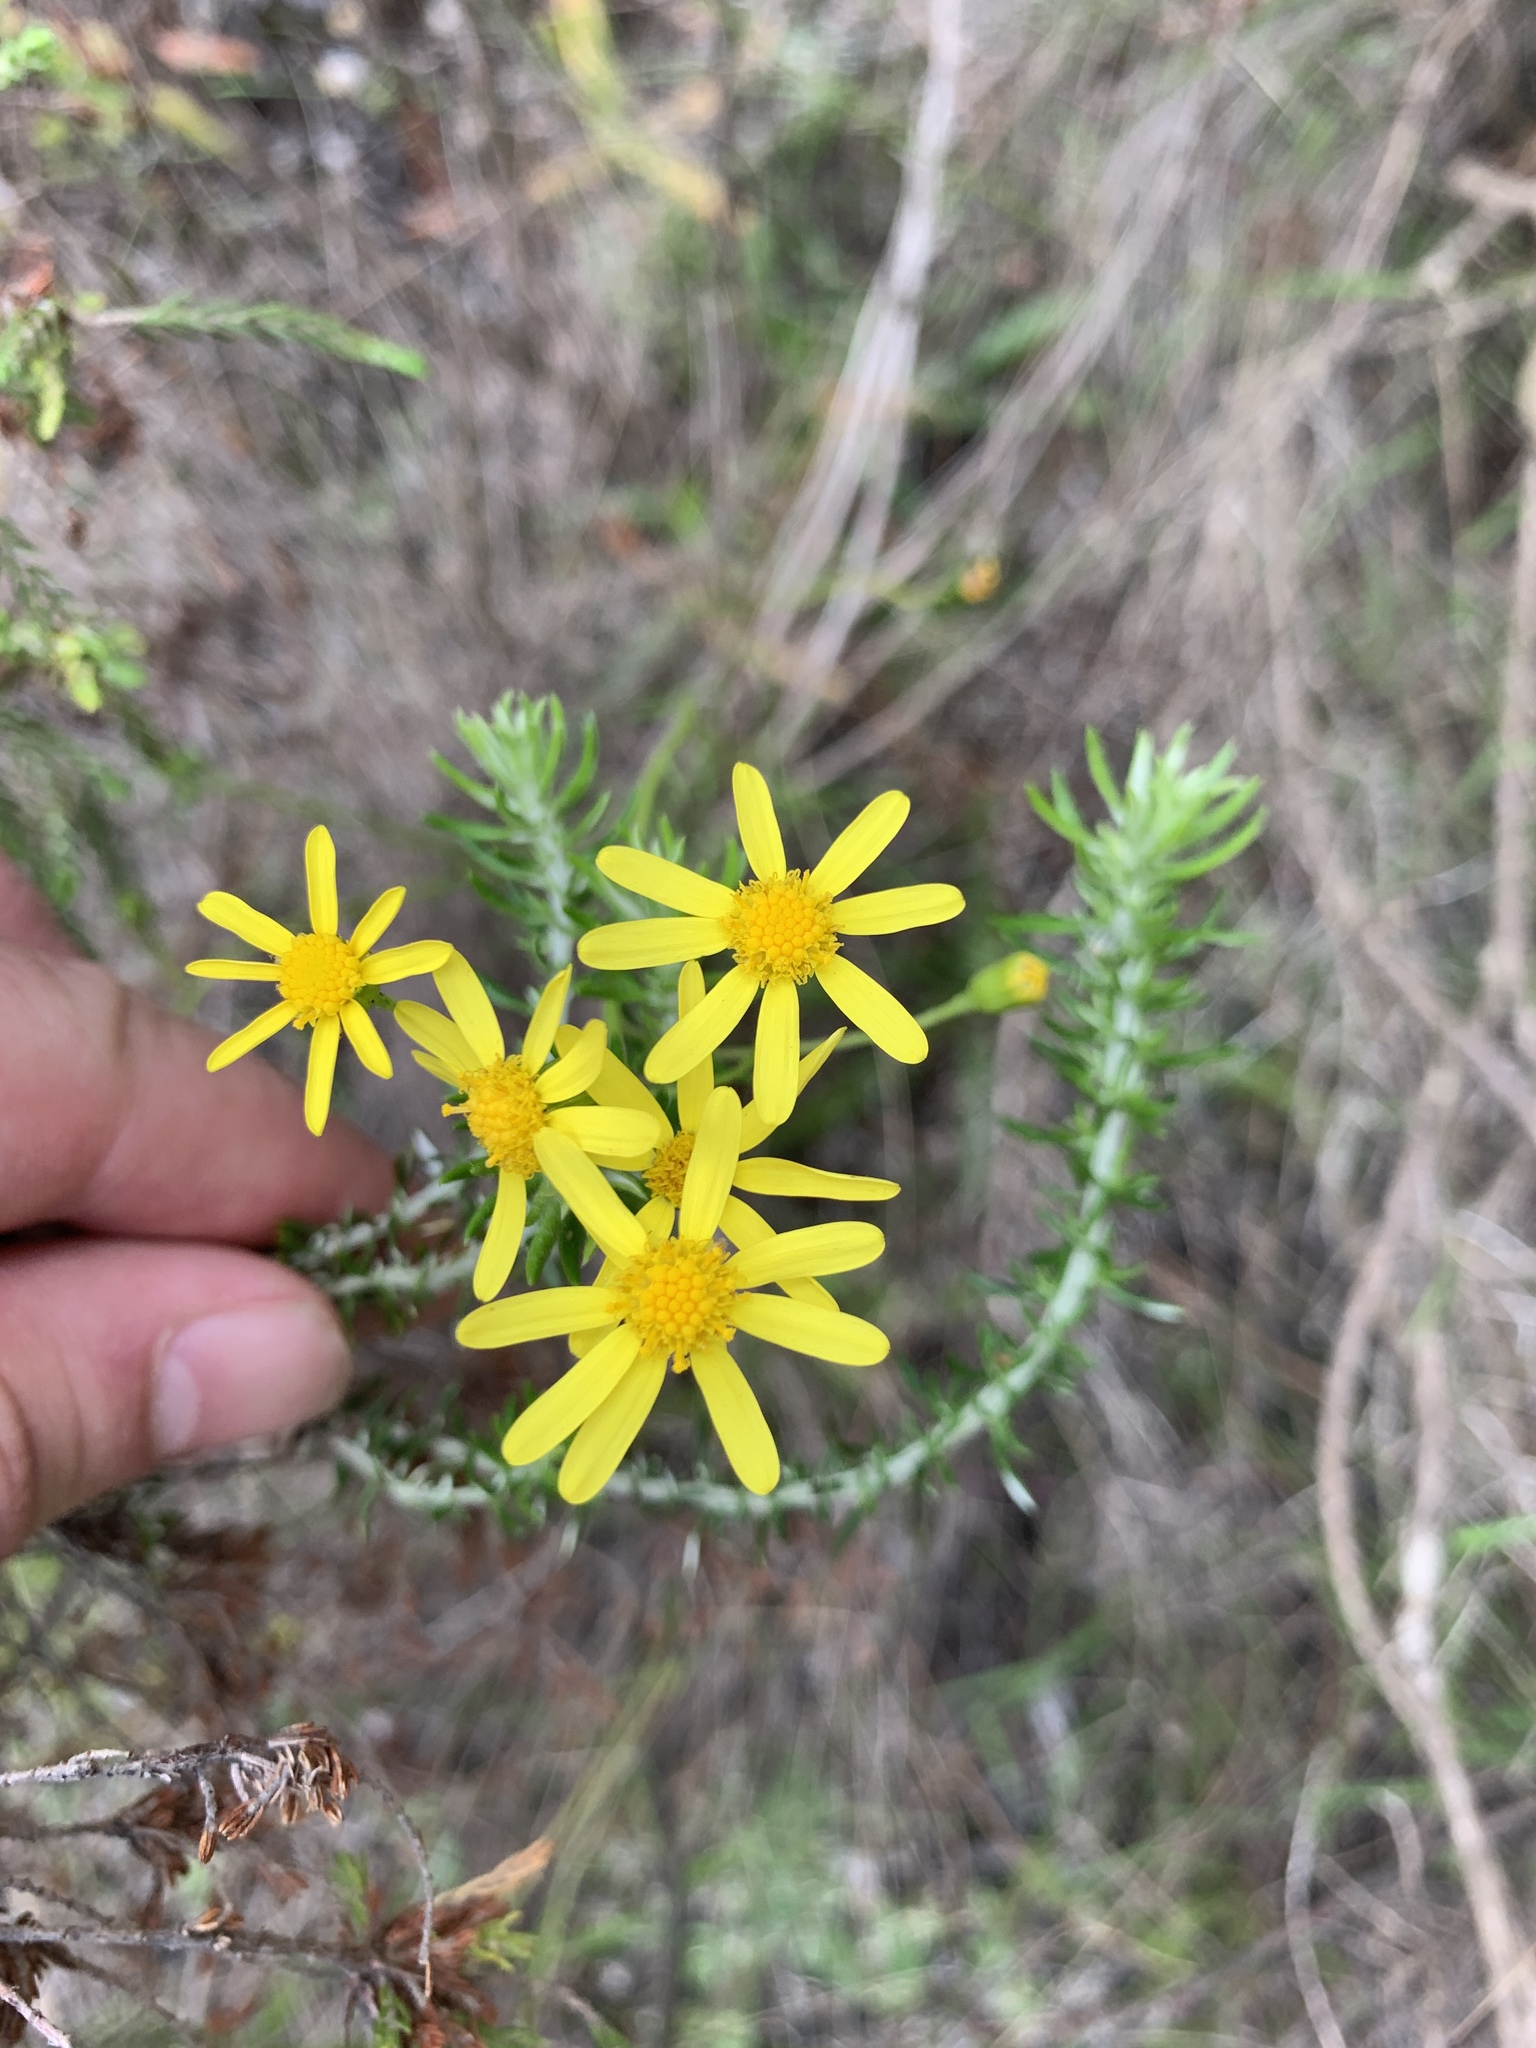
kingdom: Plantae
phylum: Tracheophyta
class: Magnoliopsida
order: Asterales
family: Asteraceae
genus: Senecio
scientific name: Senecio hastatus
